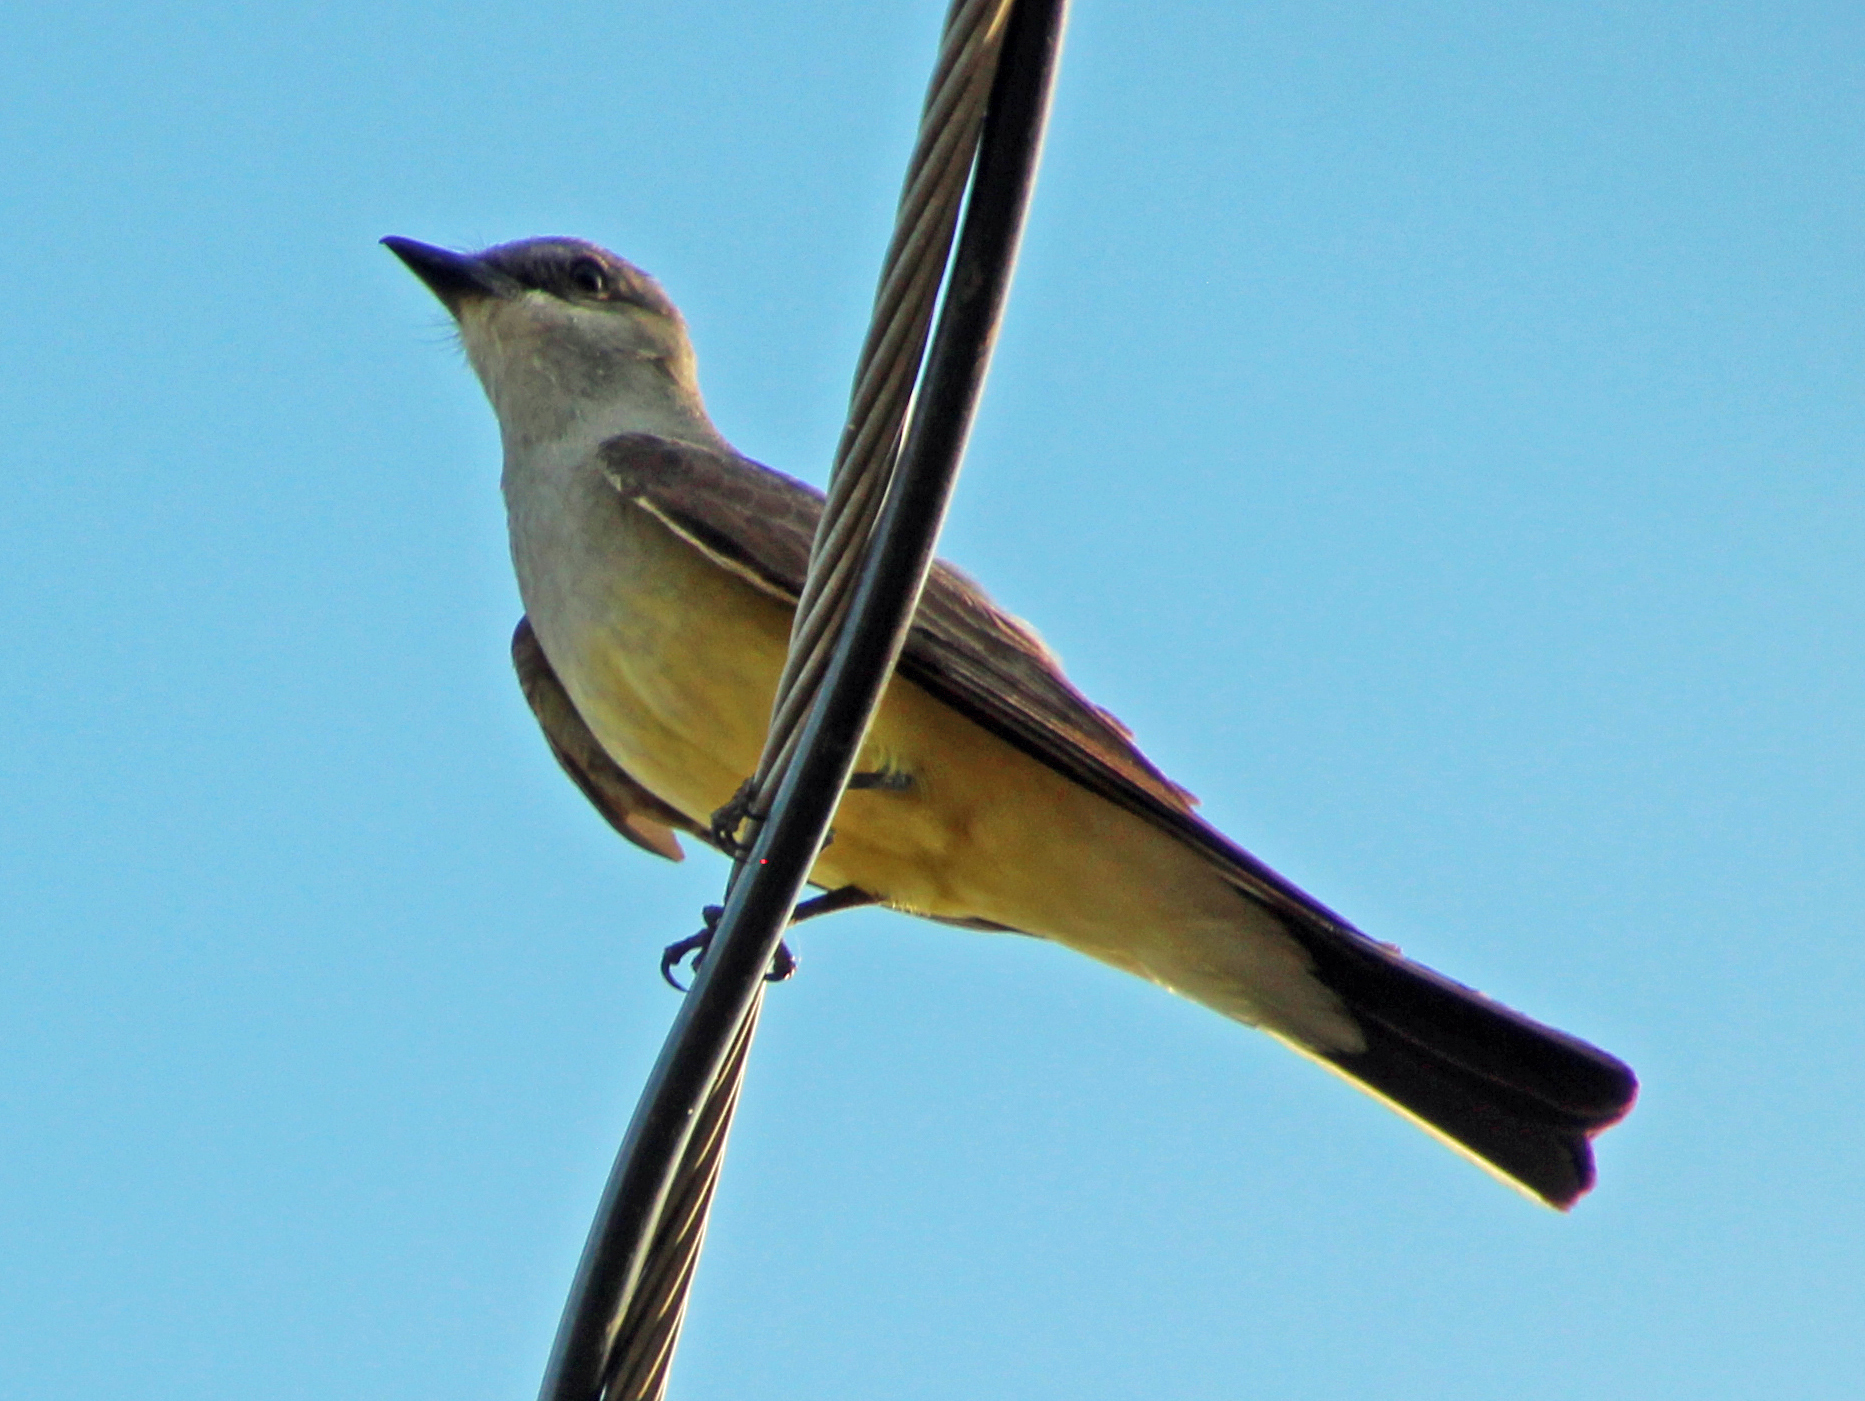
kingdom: Animalia
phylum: Chordata
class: Aves
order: Passeriformes
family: Tyrannidae
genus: Tyrannus
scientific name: Tyrannus verticalis
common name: Western kingbird
